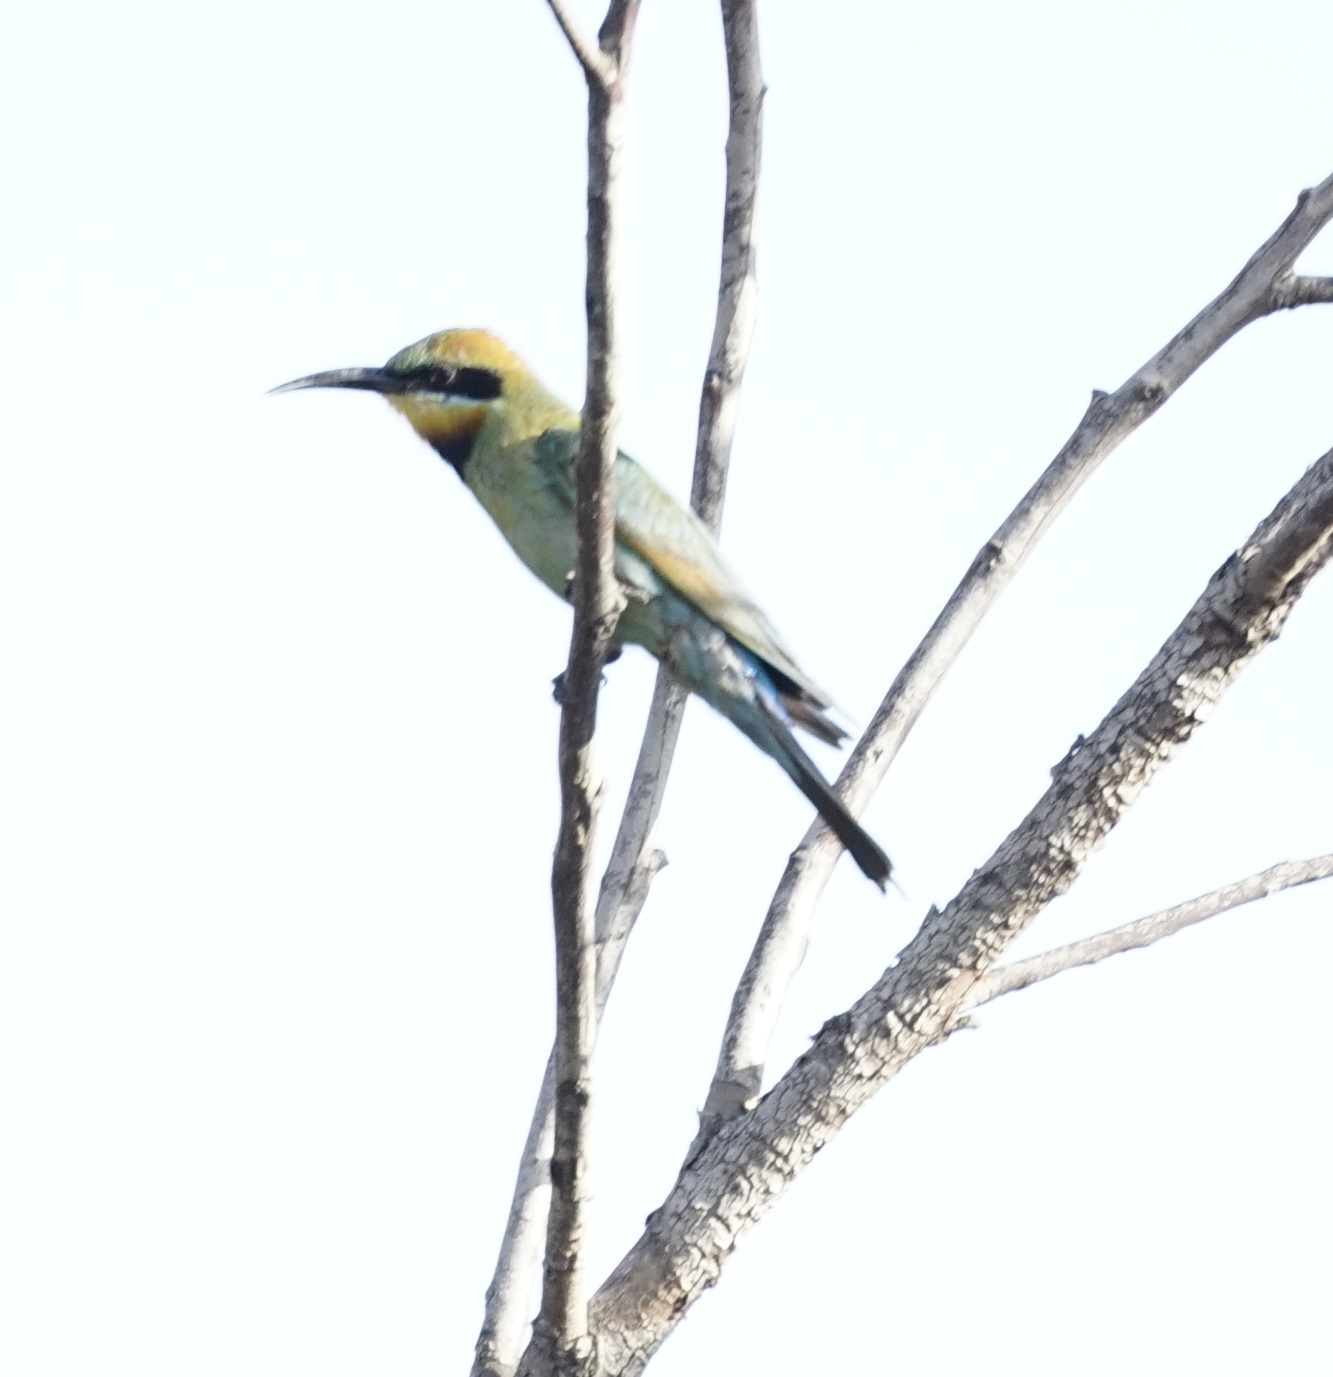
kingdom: Animalia
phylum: Chordata
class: Aves
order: Coraciiformes
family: Meropidae
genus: Merops
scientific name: Merops ornatus
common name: Rainbow bee-eater
